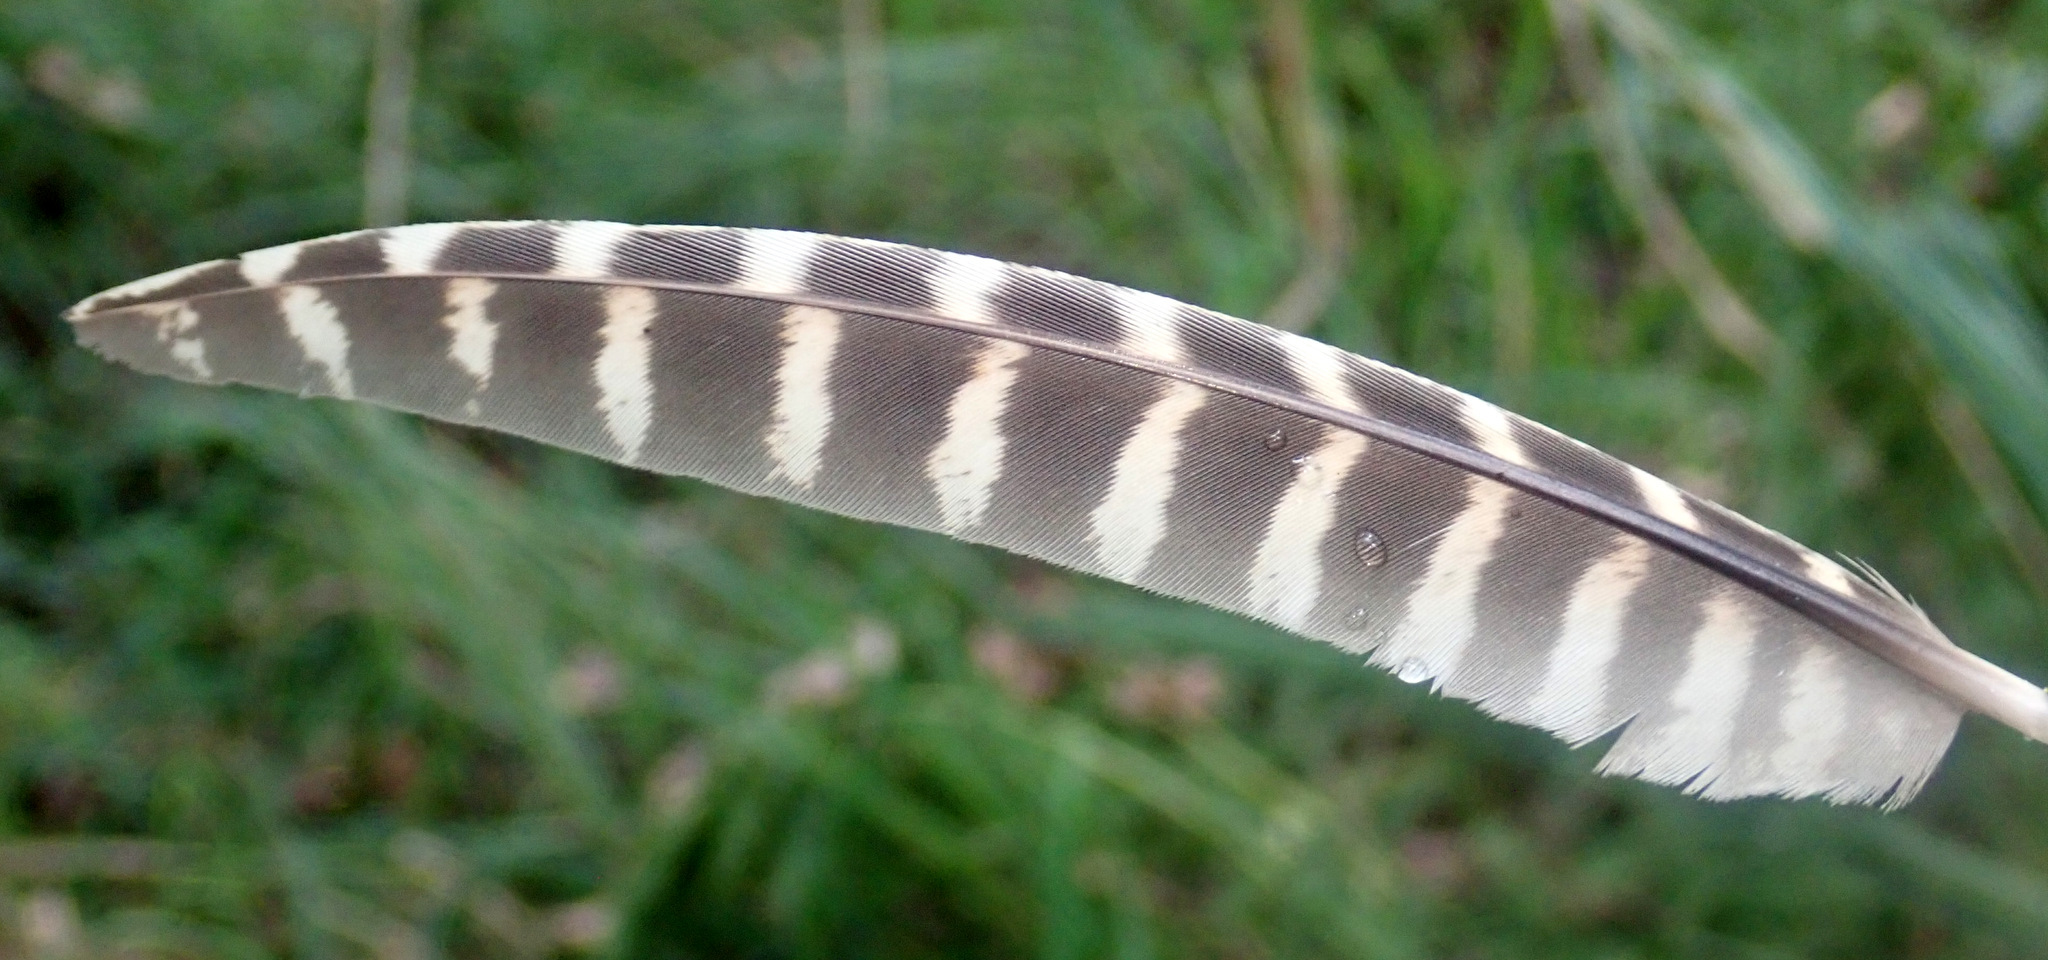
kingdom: Animalia
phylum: Chordata
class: Aves
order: Galliformes
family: Phasianidae
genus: Phasianus
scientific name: Phasianus colchicus
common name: Common pheasant
